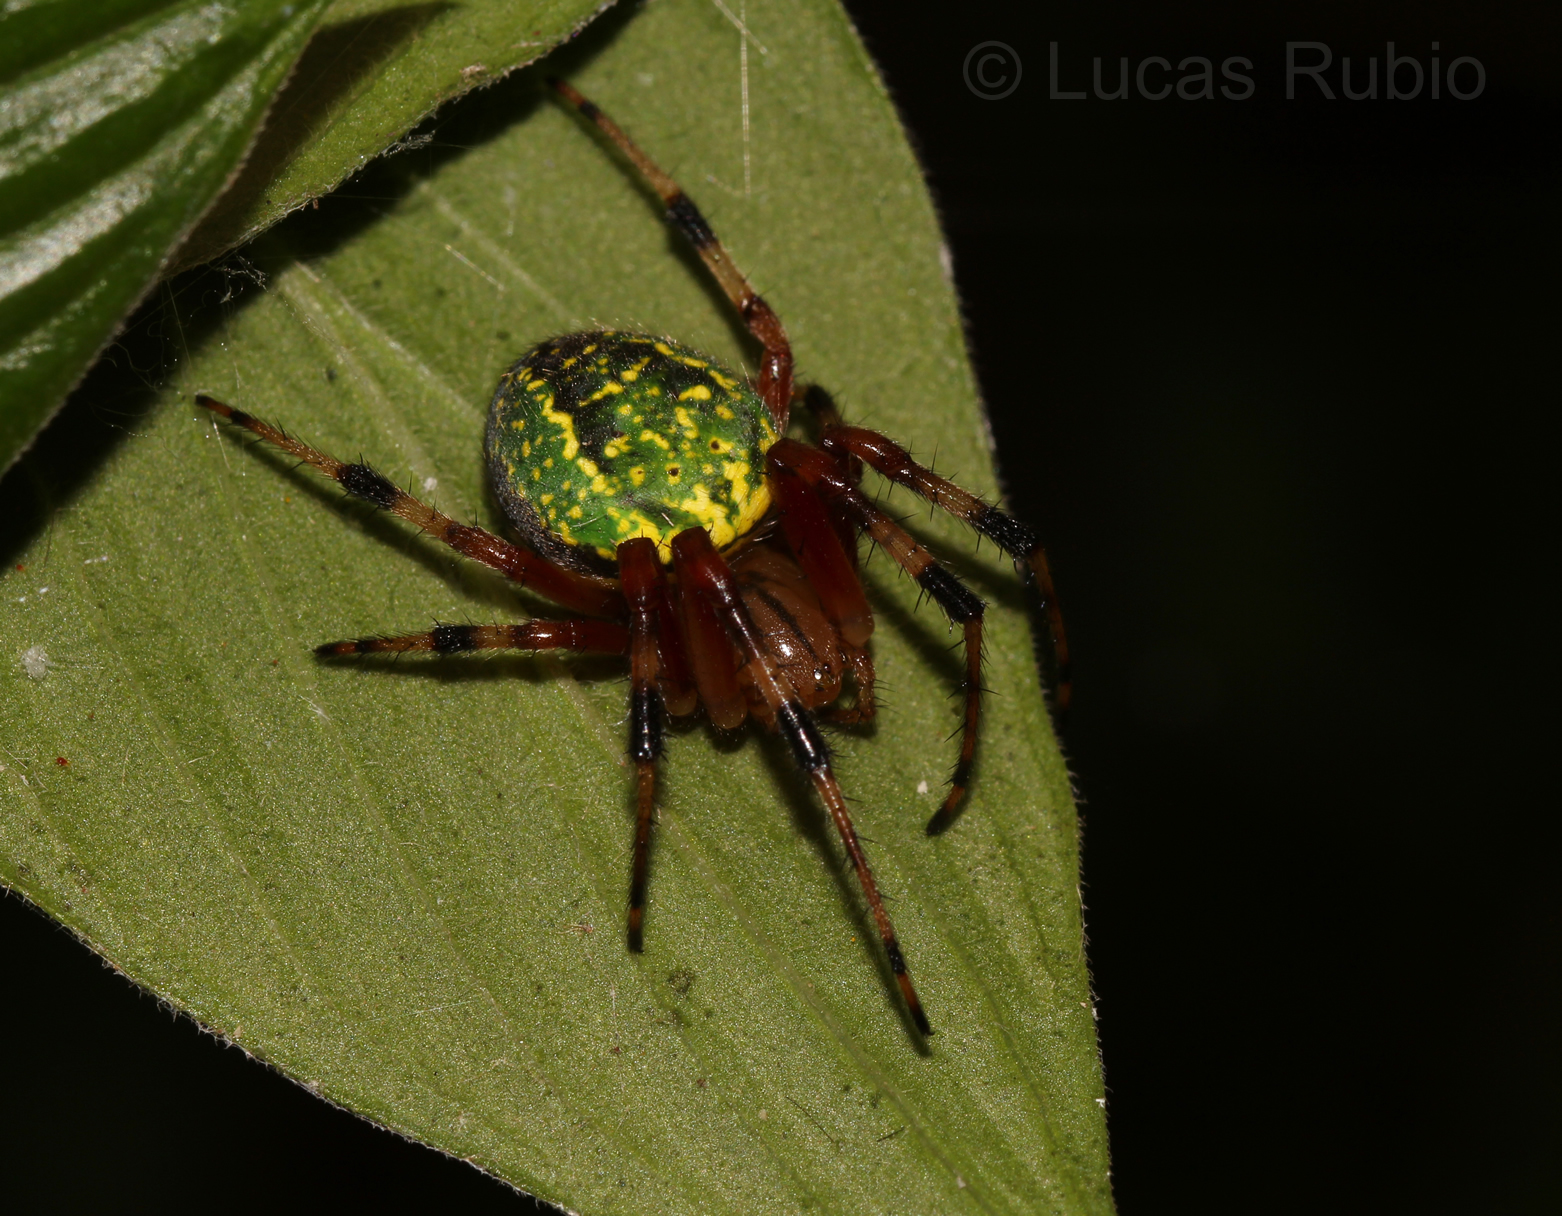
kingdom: Animalia
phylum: Arthropoda
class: Arachnida
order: Araneae
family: Araneidae
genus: Araneus
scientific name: Araneus guttatus
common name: Orb weavers
